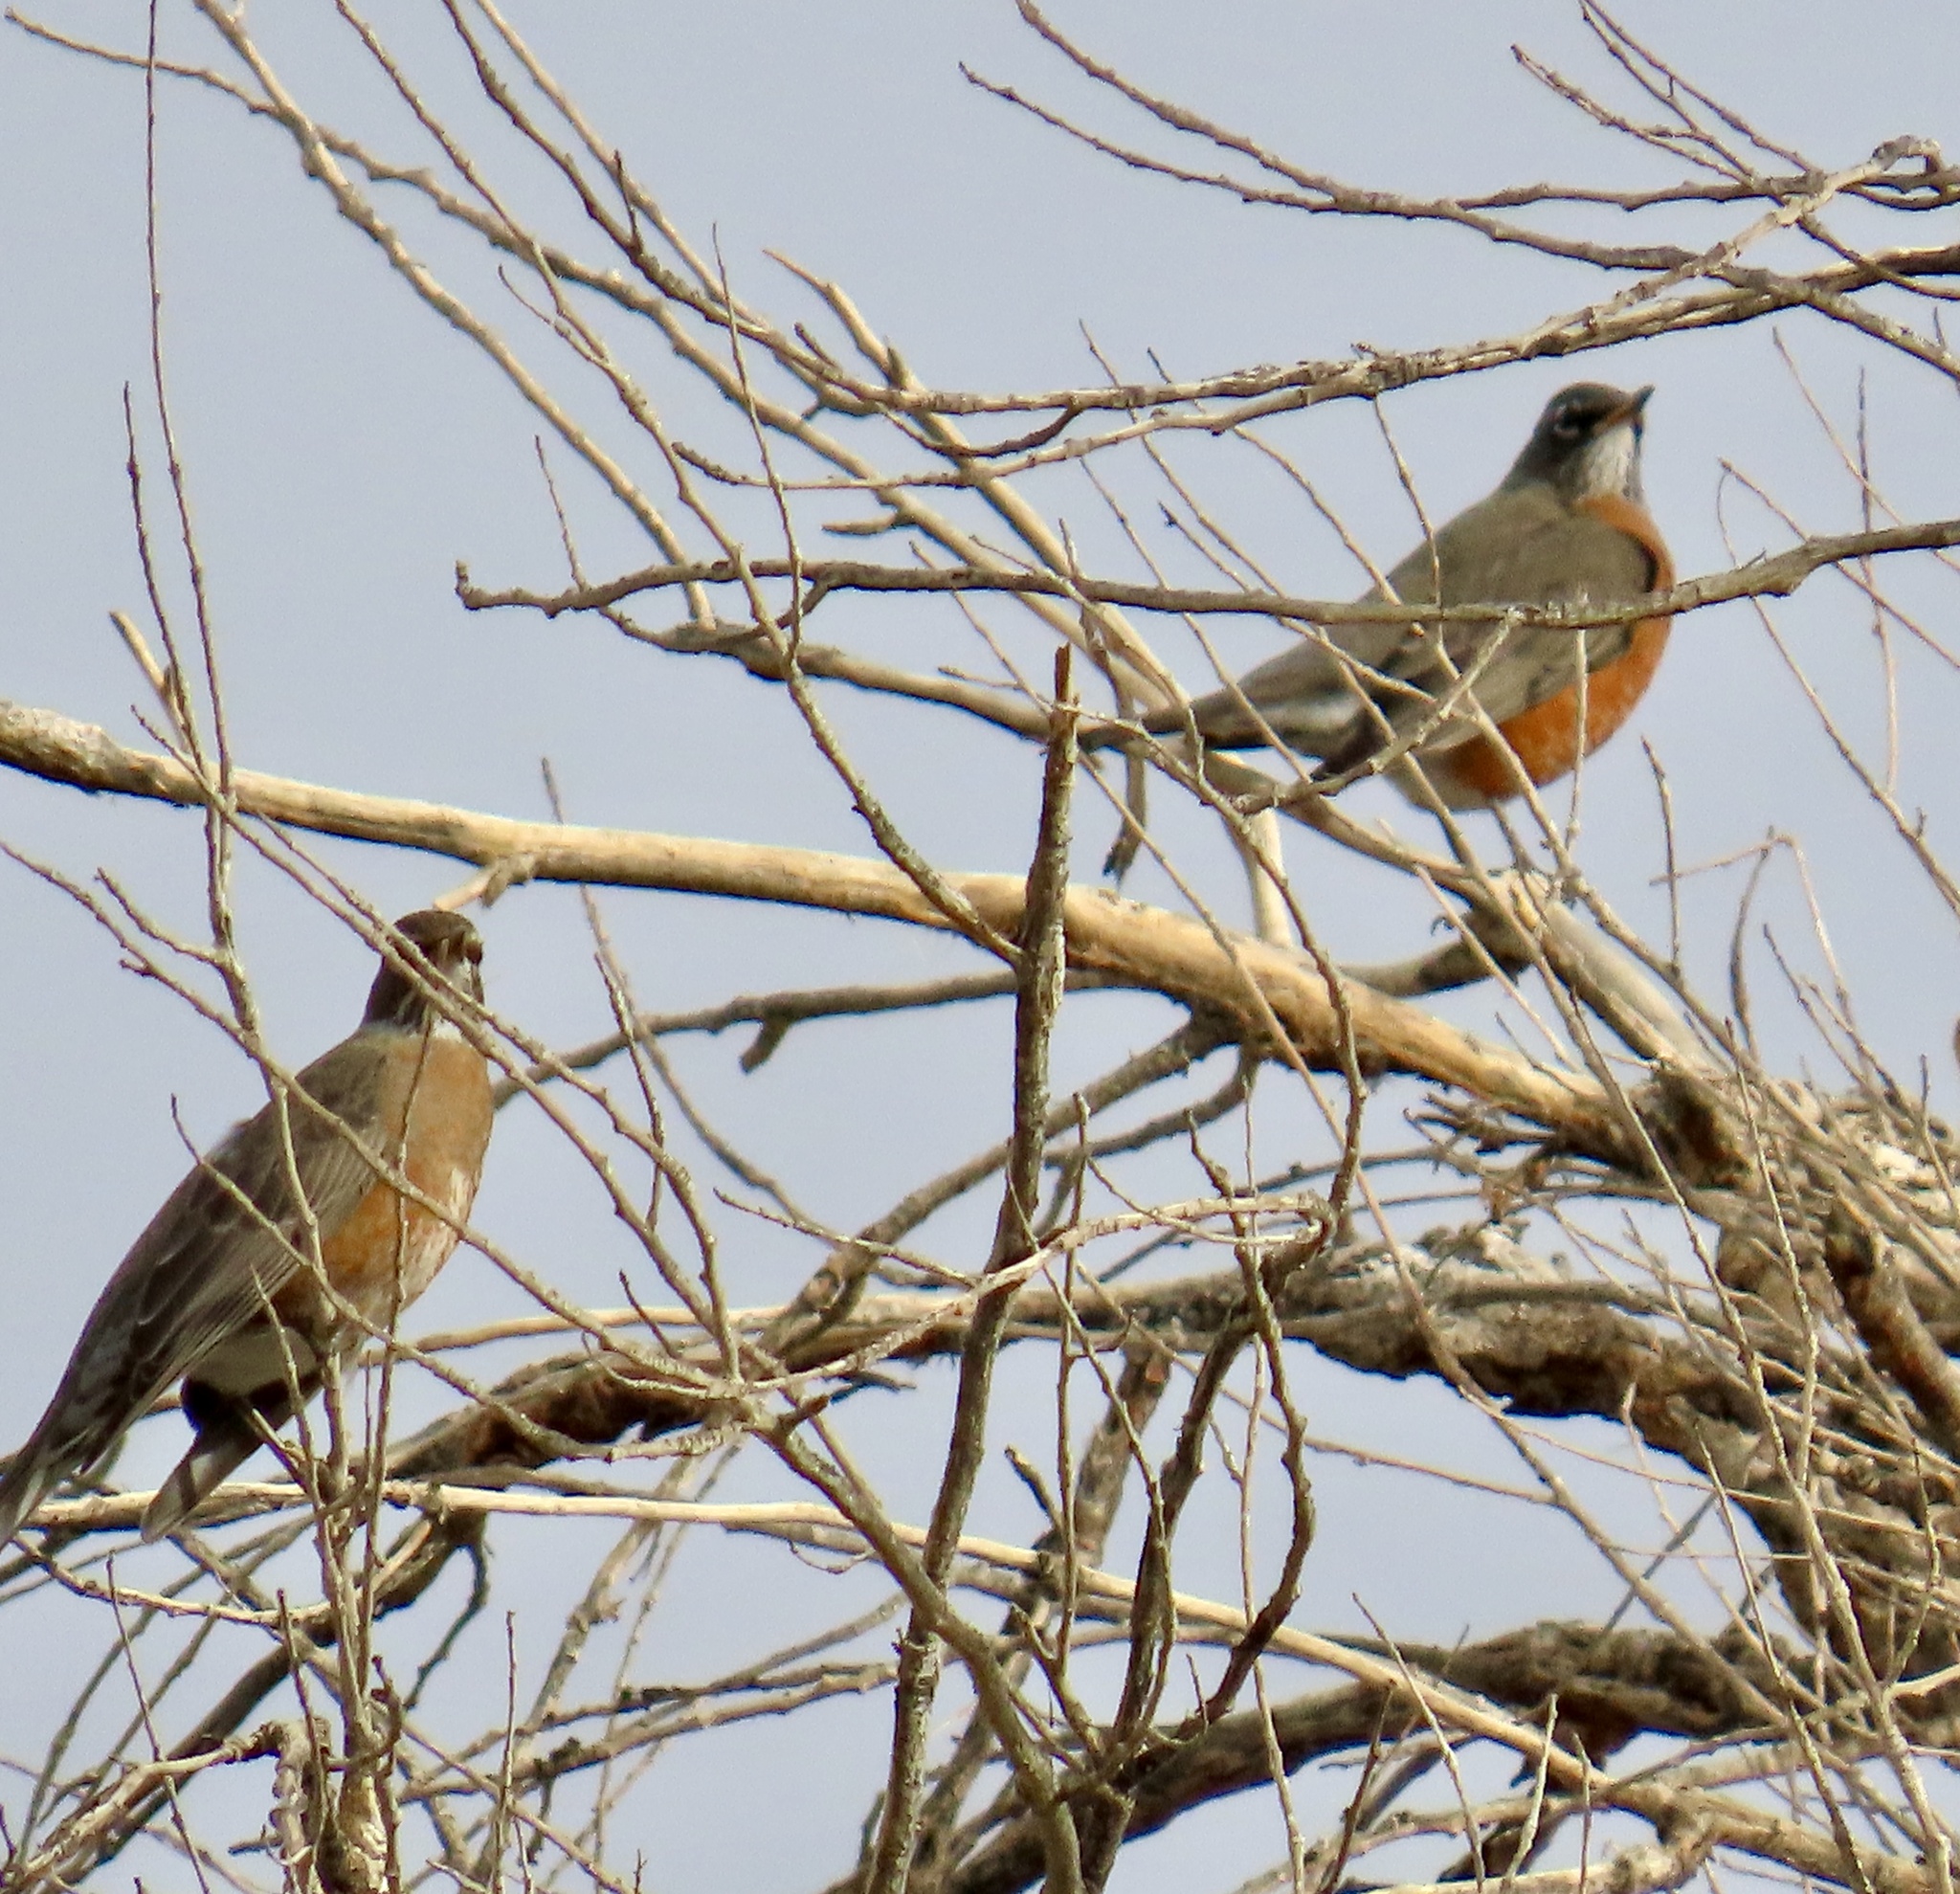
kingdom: Animalia
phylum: Chordata
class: Aves
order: Passeriformes
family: Turdidae
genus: Turdus
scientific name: Turdus migratorius
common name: American robin
